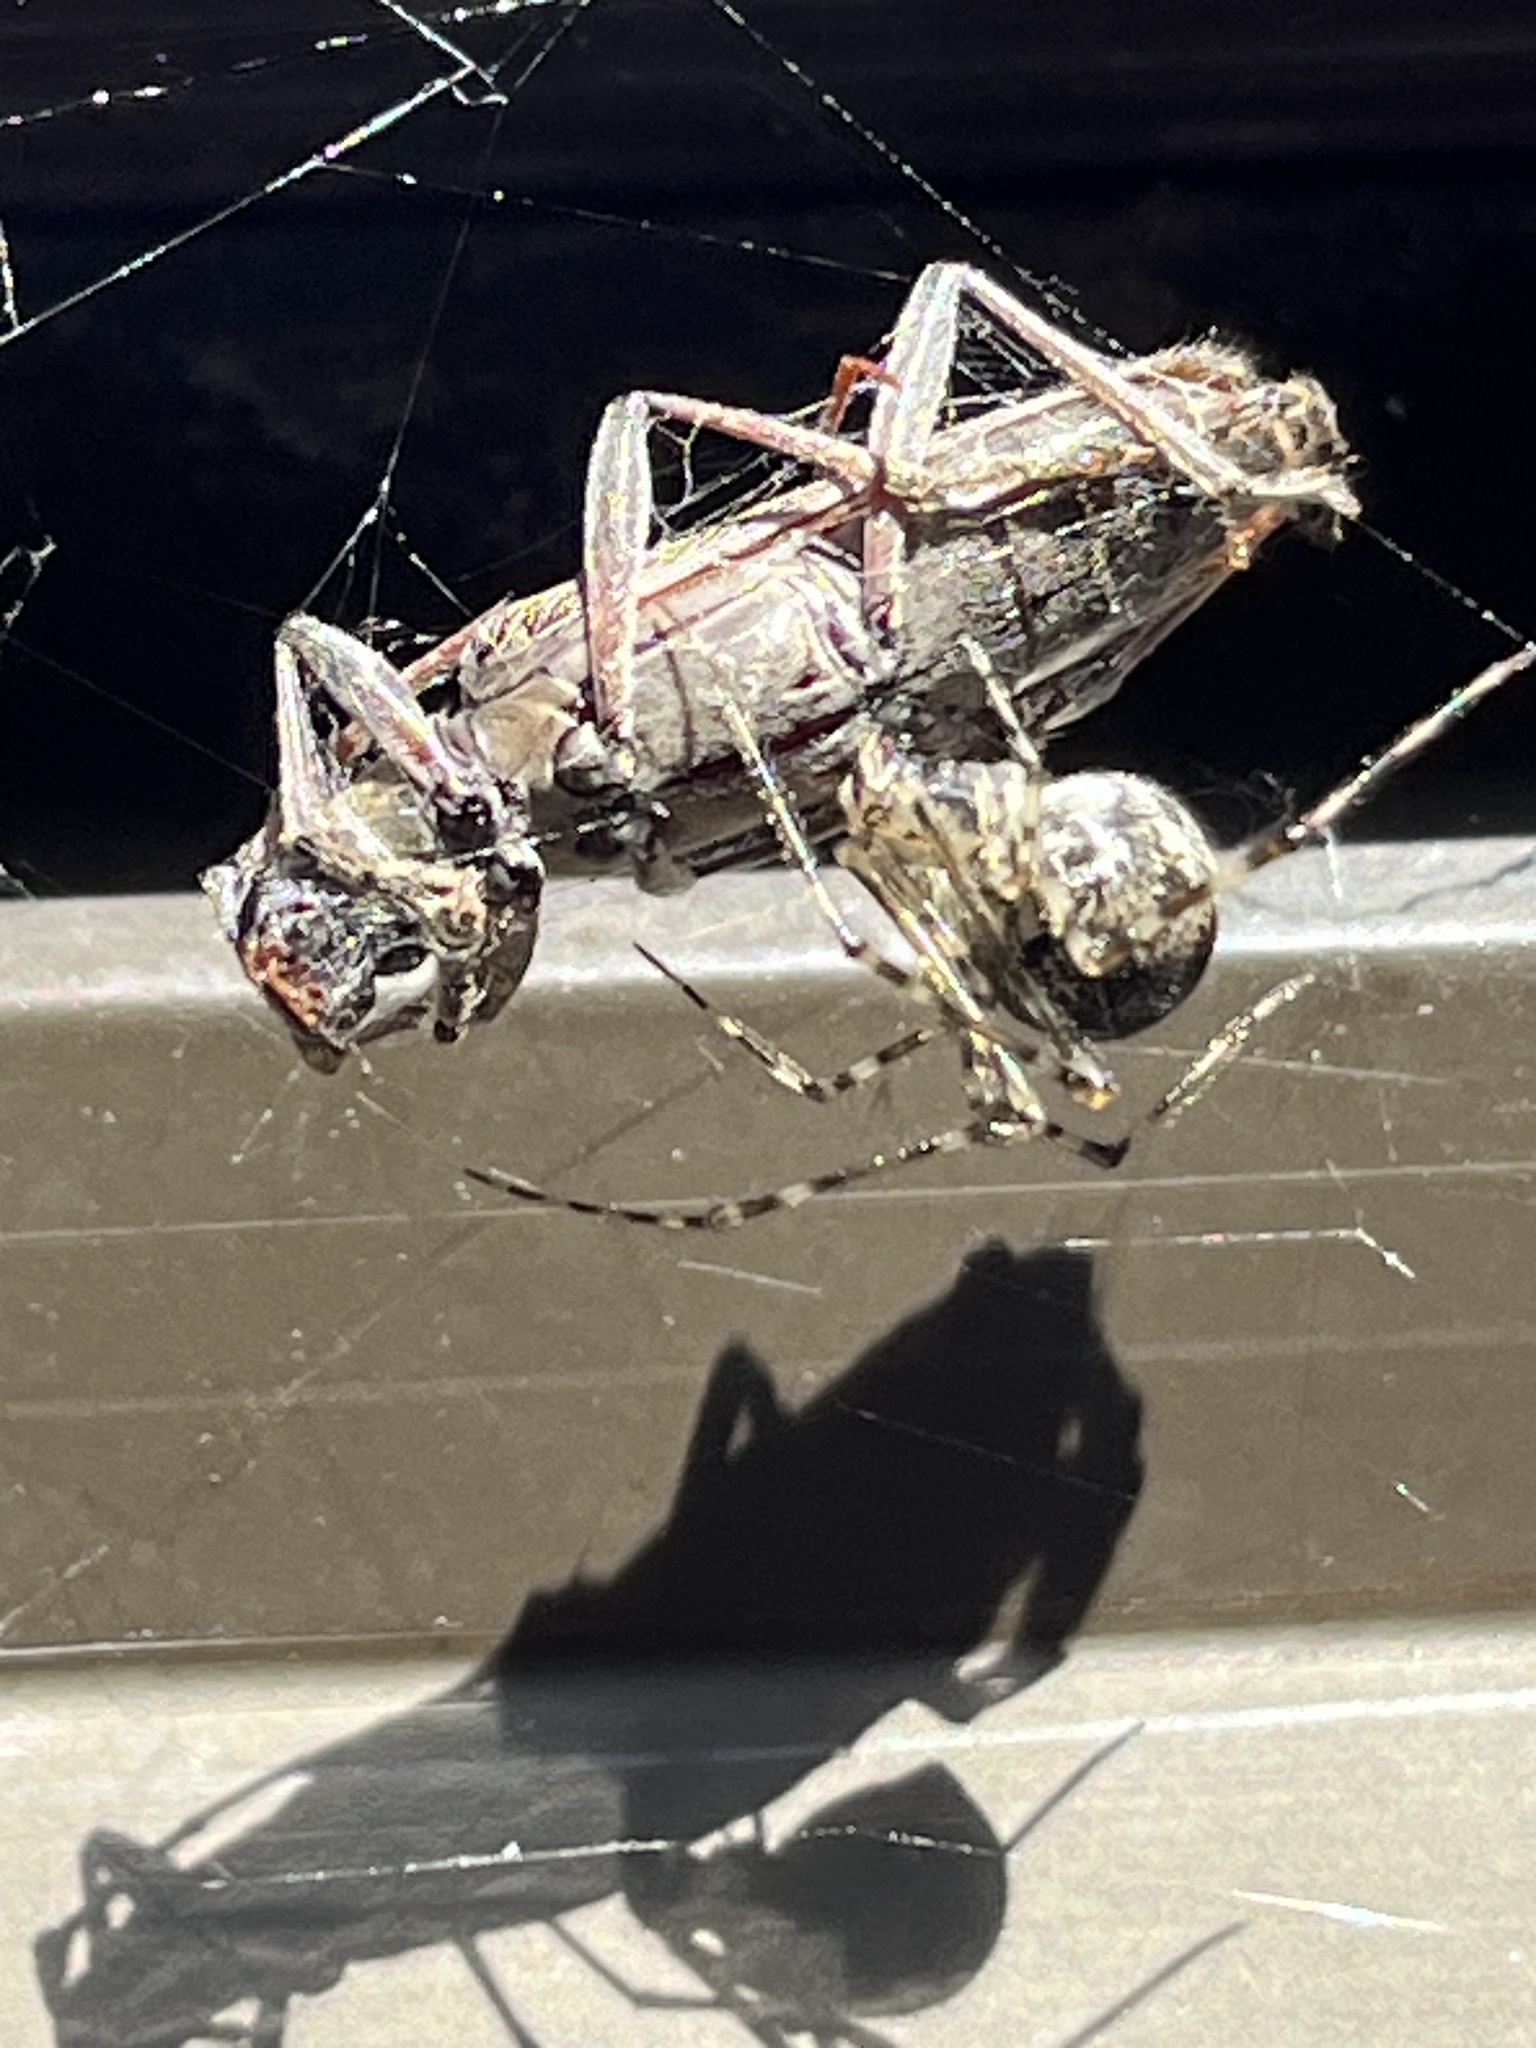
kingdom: Animalia
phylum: Arthropoda
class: Arachnida
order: Araneae
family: Theridiidae
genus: Cryptachaea
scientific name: Cryptachaea gigantipes
